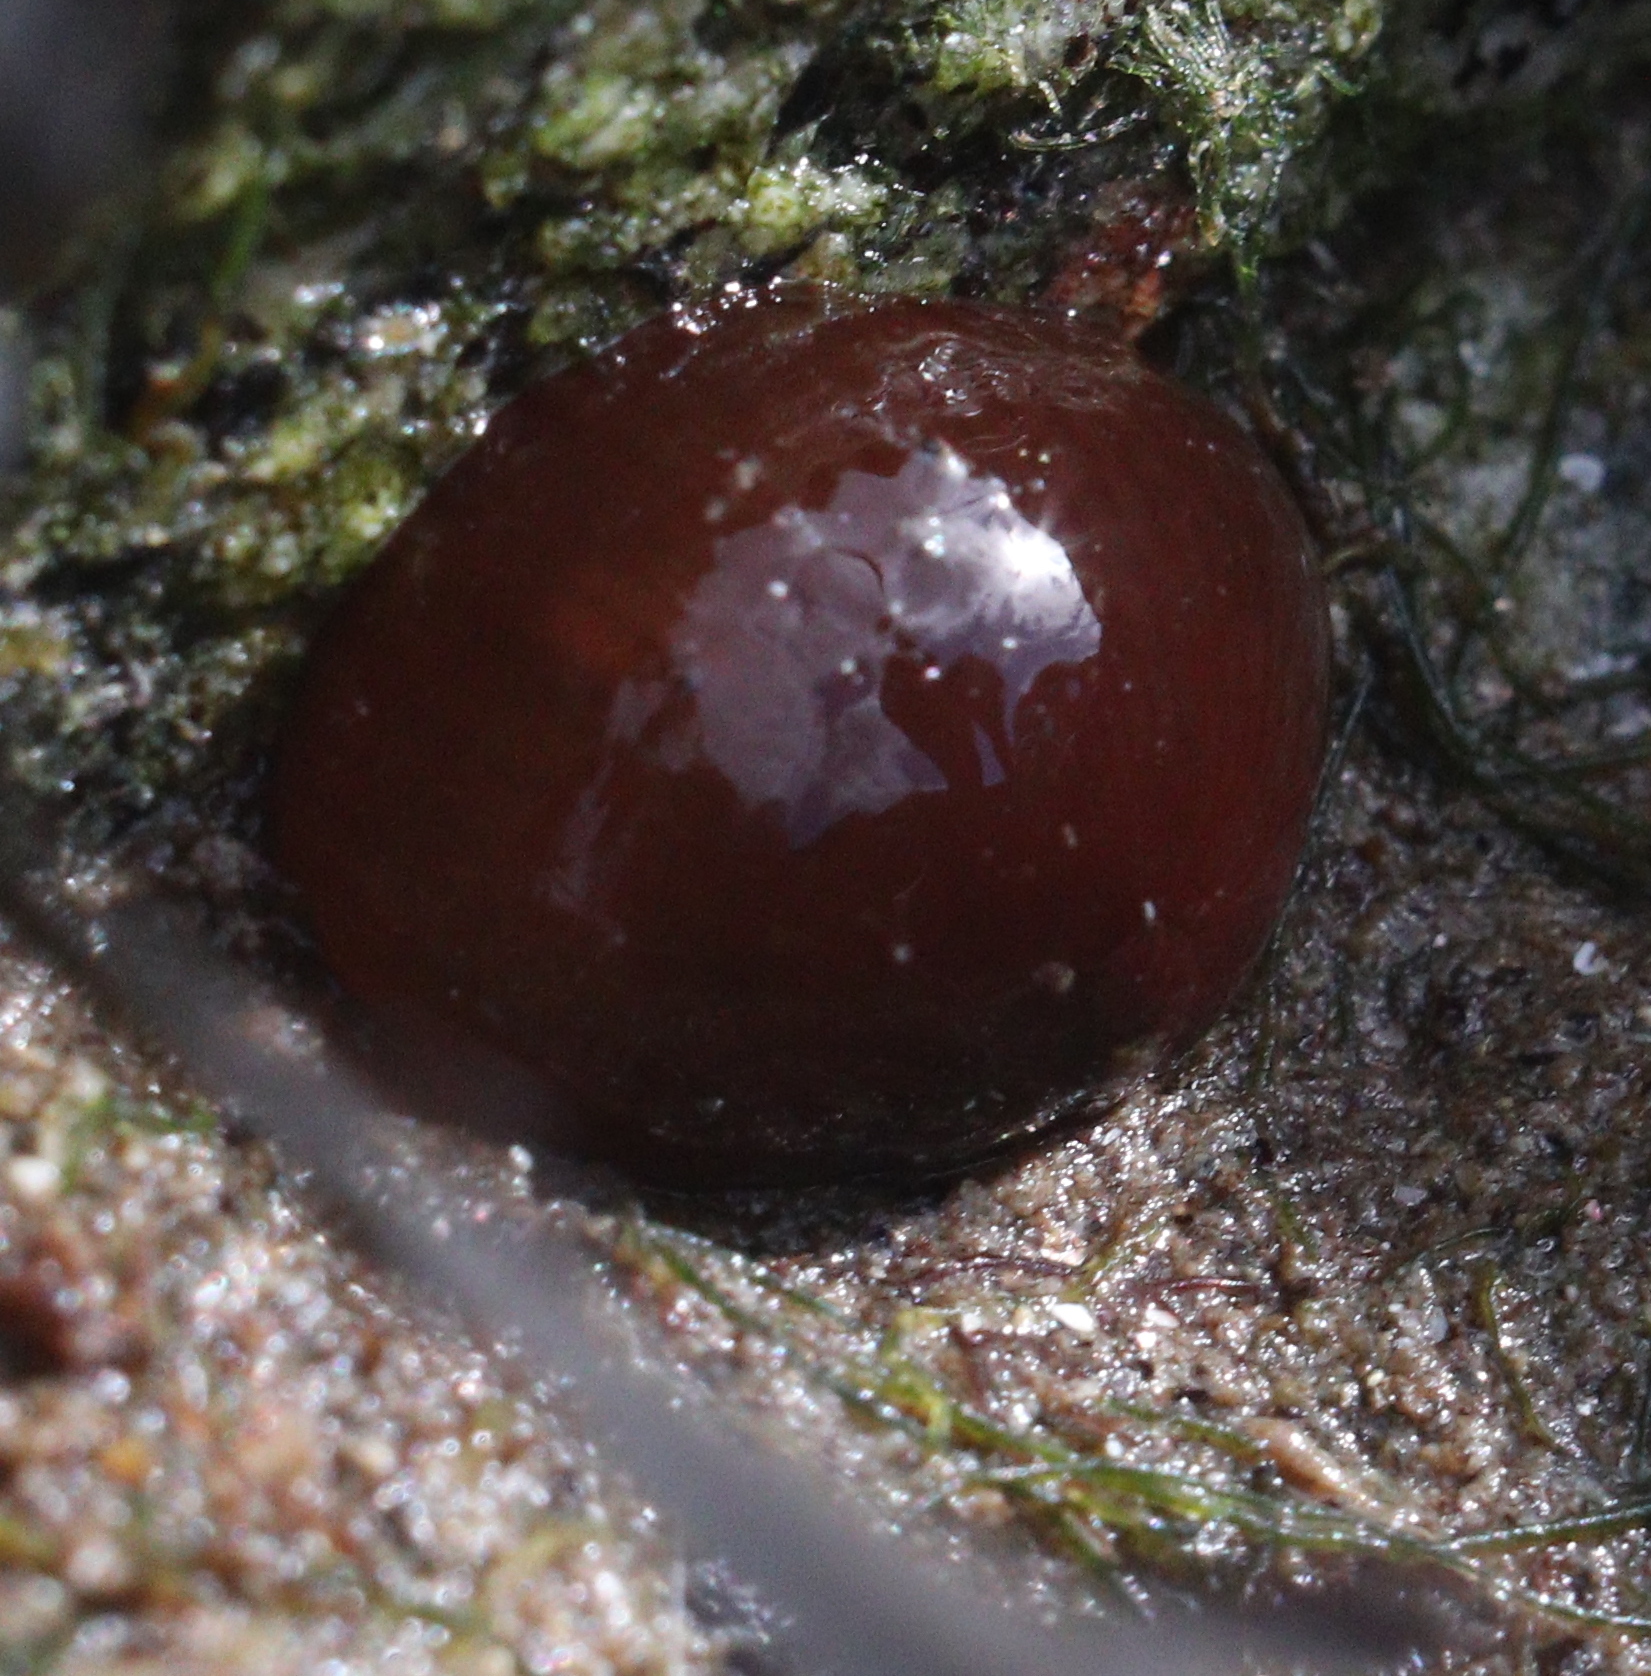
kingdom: Animalia
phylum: Cnidaria
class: Anthozoa
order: Actiniaria
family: Actiniidae
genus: Actinia
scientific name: Actinia equina
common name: Beadlet anemone
